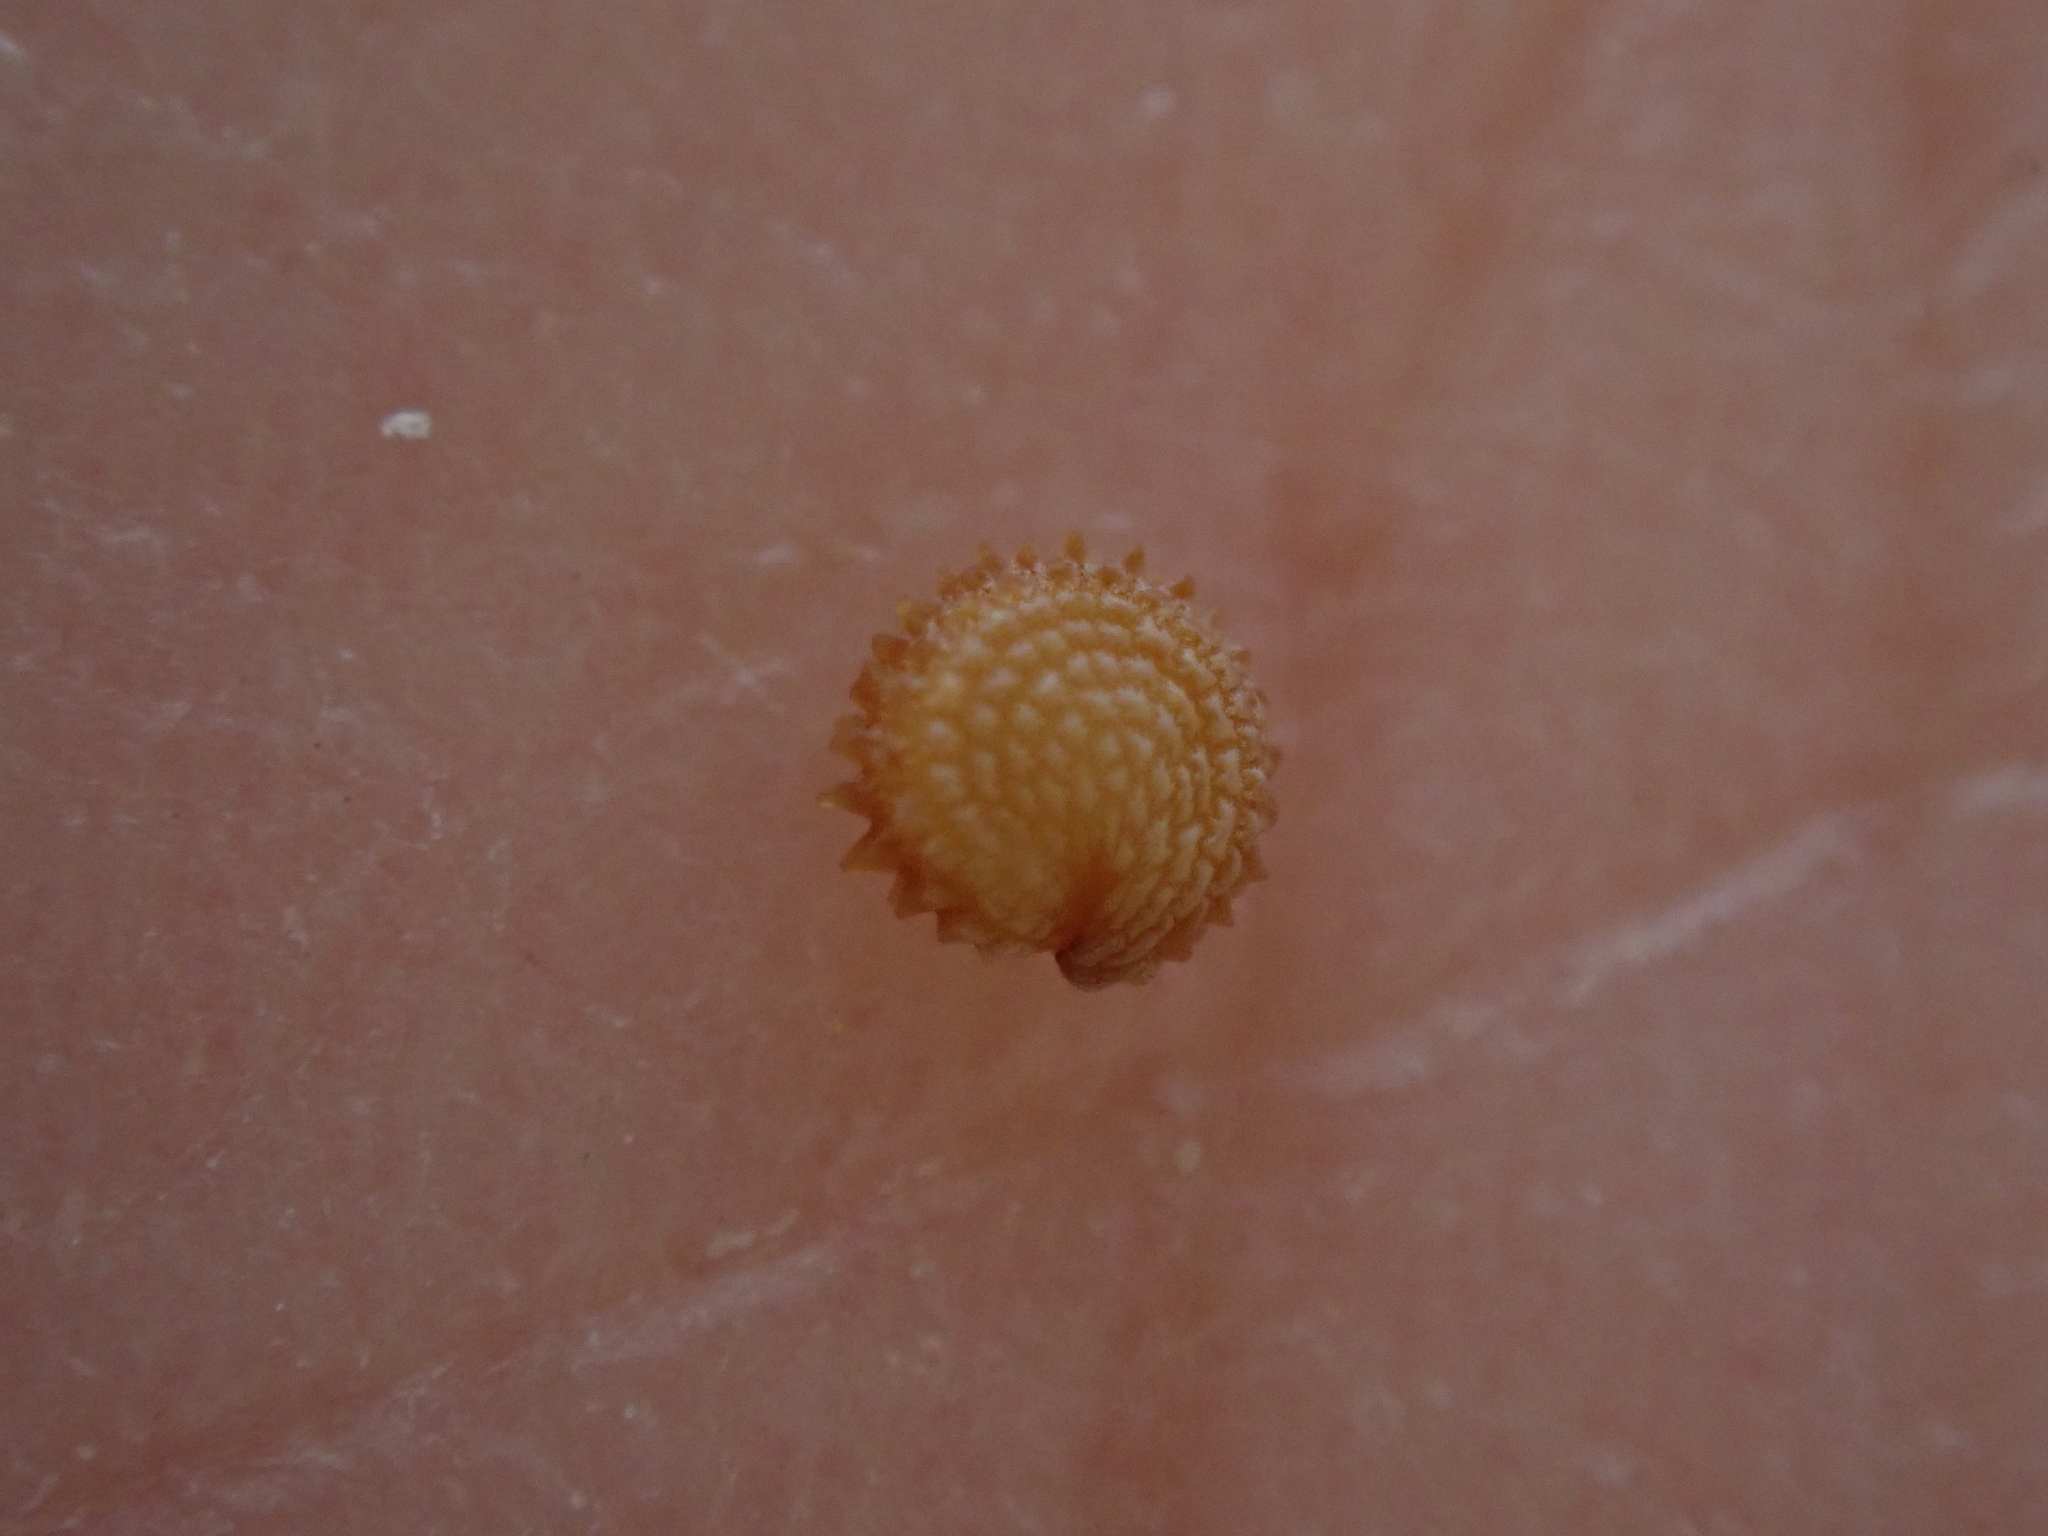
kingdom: Plantae
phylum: Tracheophyta
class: Magnoliopsida
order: Caryophyllales
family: Caryophyllaceae
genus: Stellaria
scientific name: Stellaria ruderalis
